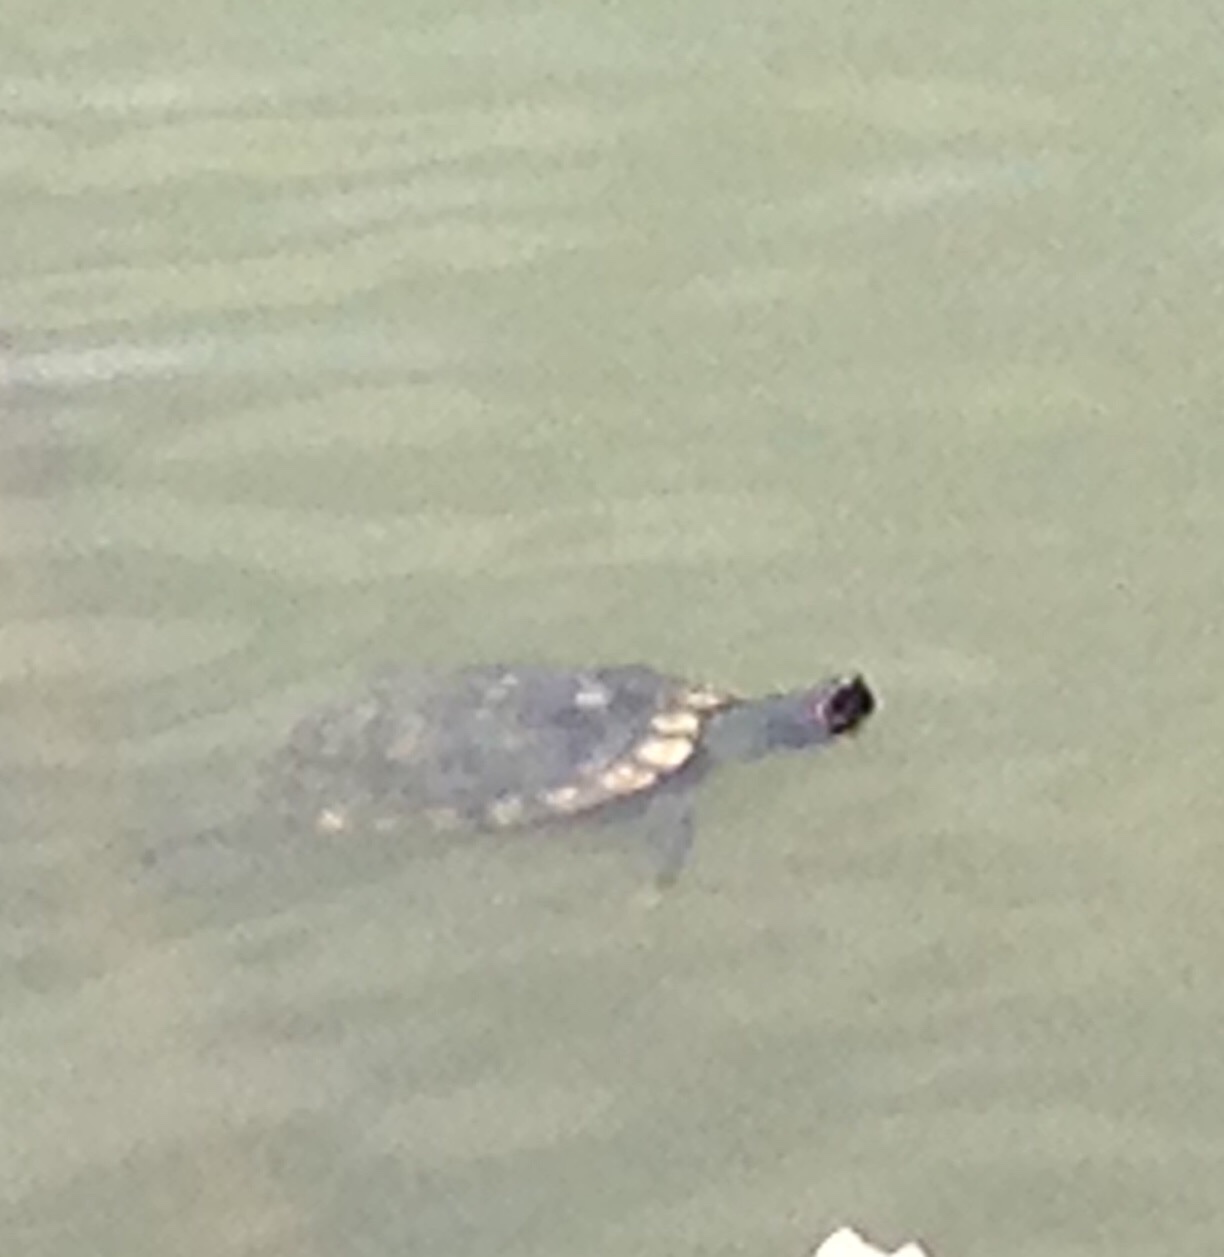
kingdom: Animalia
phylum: Chordata
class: Testudines
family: Emydidae
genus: Trachemys
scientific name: Trachemys scripta
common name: Slider
